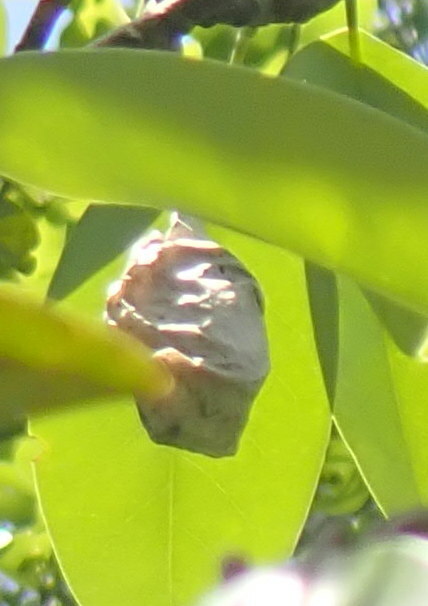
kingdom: Animalia
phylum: Arthropoda
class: Insecta
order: Lepidoptera
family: Saturniidae
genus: Antheraea
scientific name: Antheraea polyphemus
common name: Polyphemus moth
